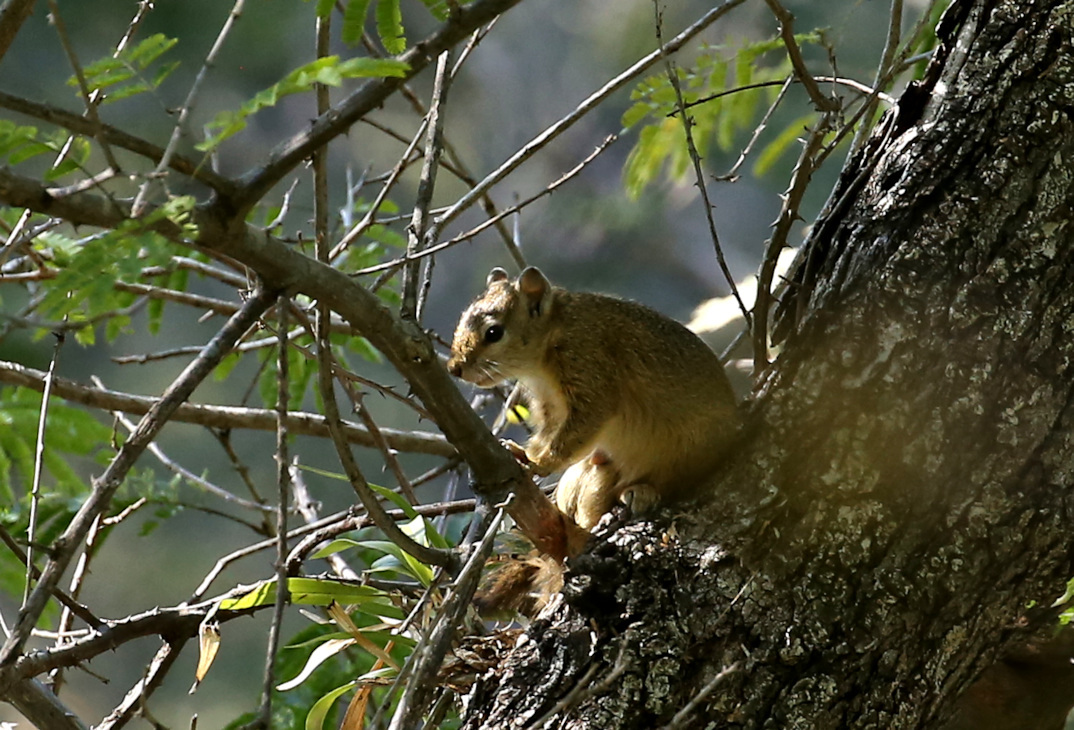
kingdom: Animalia
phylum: Chordata
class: Mammalia
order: Rodentia
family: Sciuridae
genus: Paraxerus
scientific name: Paraxerus cepapi
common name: Smith's bush squirrel
